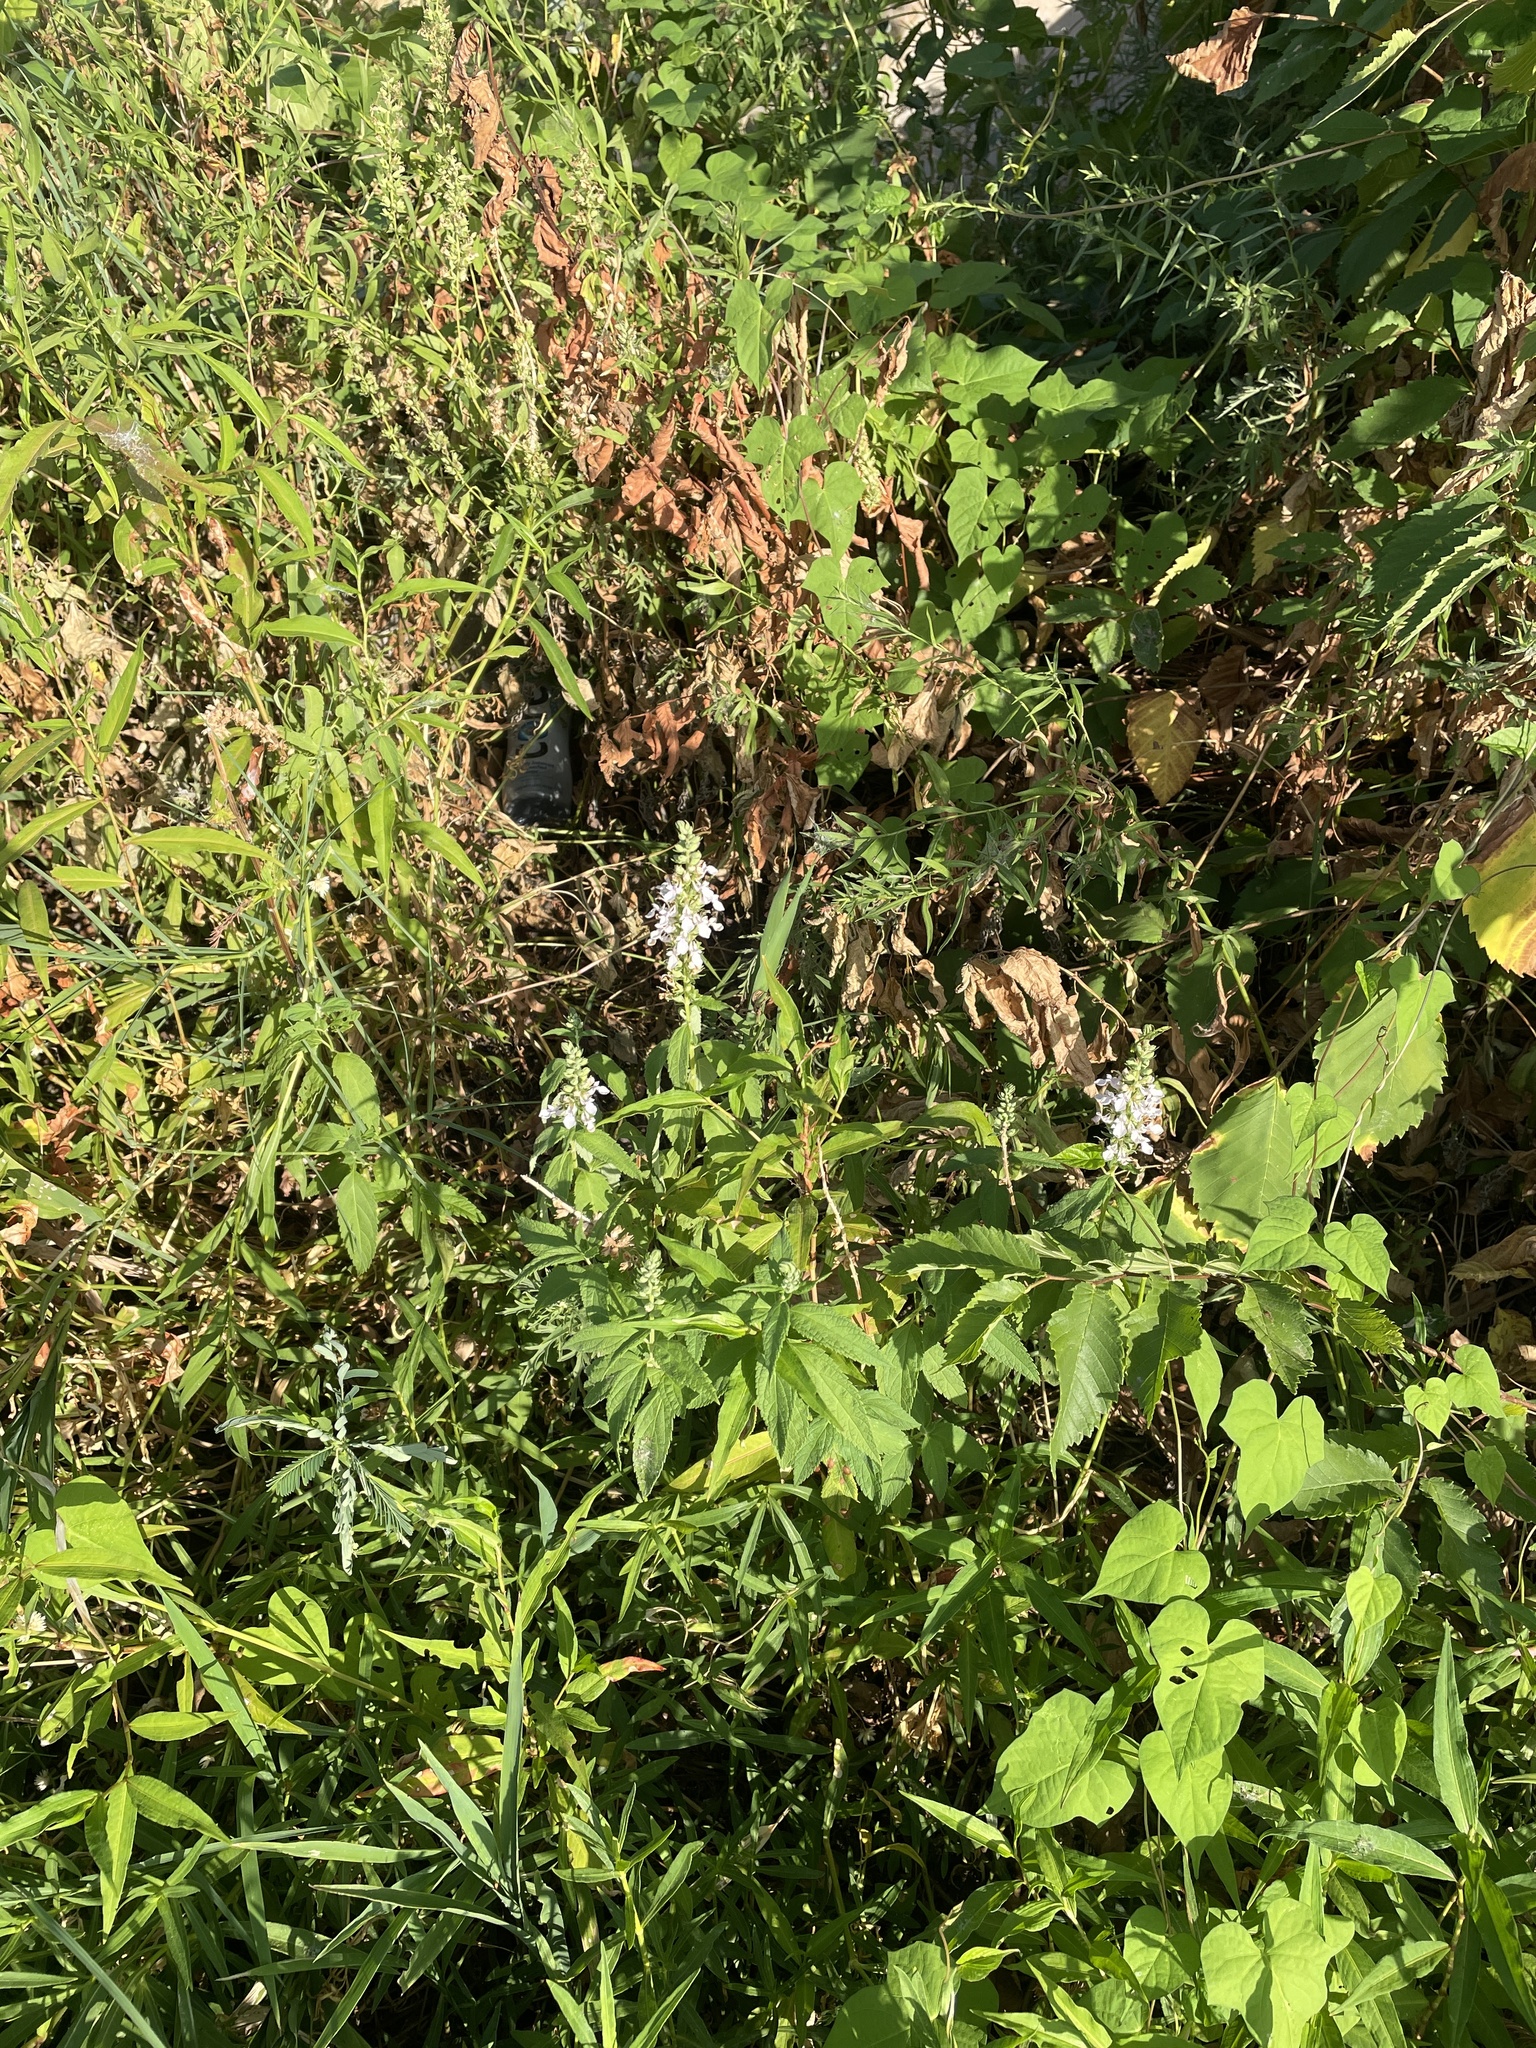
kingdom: Plantae
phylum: Tracheophyta
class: Magnoliopsida
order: Lamiales
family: Lamiaceae
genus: Teucrium
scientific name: Teucrium canadense
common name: American germander
